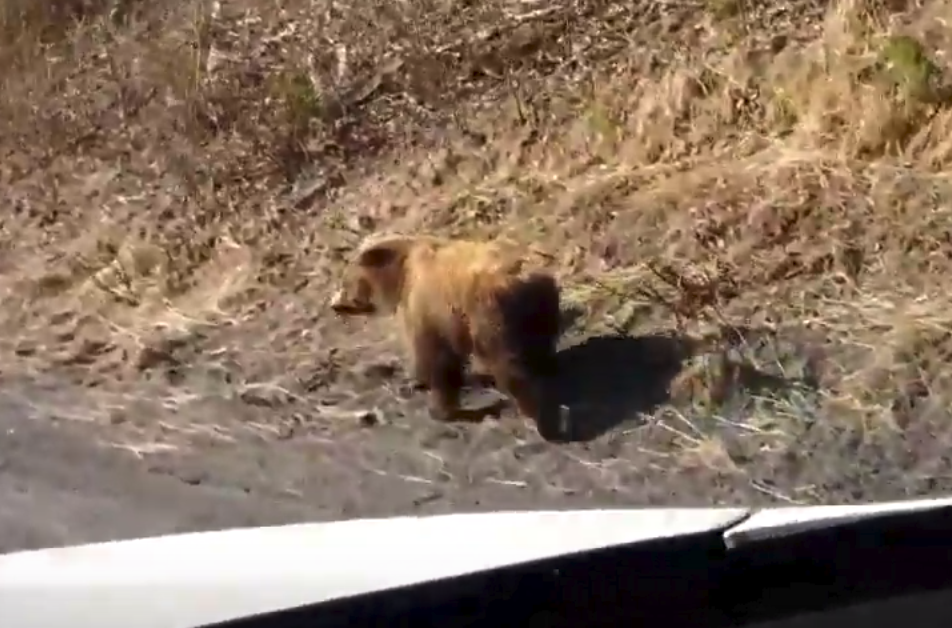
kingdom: Animalia
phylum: Chordata
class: Mammalia
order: Carnivora
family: Ursidae
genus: Ursus
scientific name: Ursus arctos
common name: Brown bear
